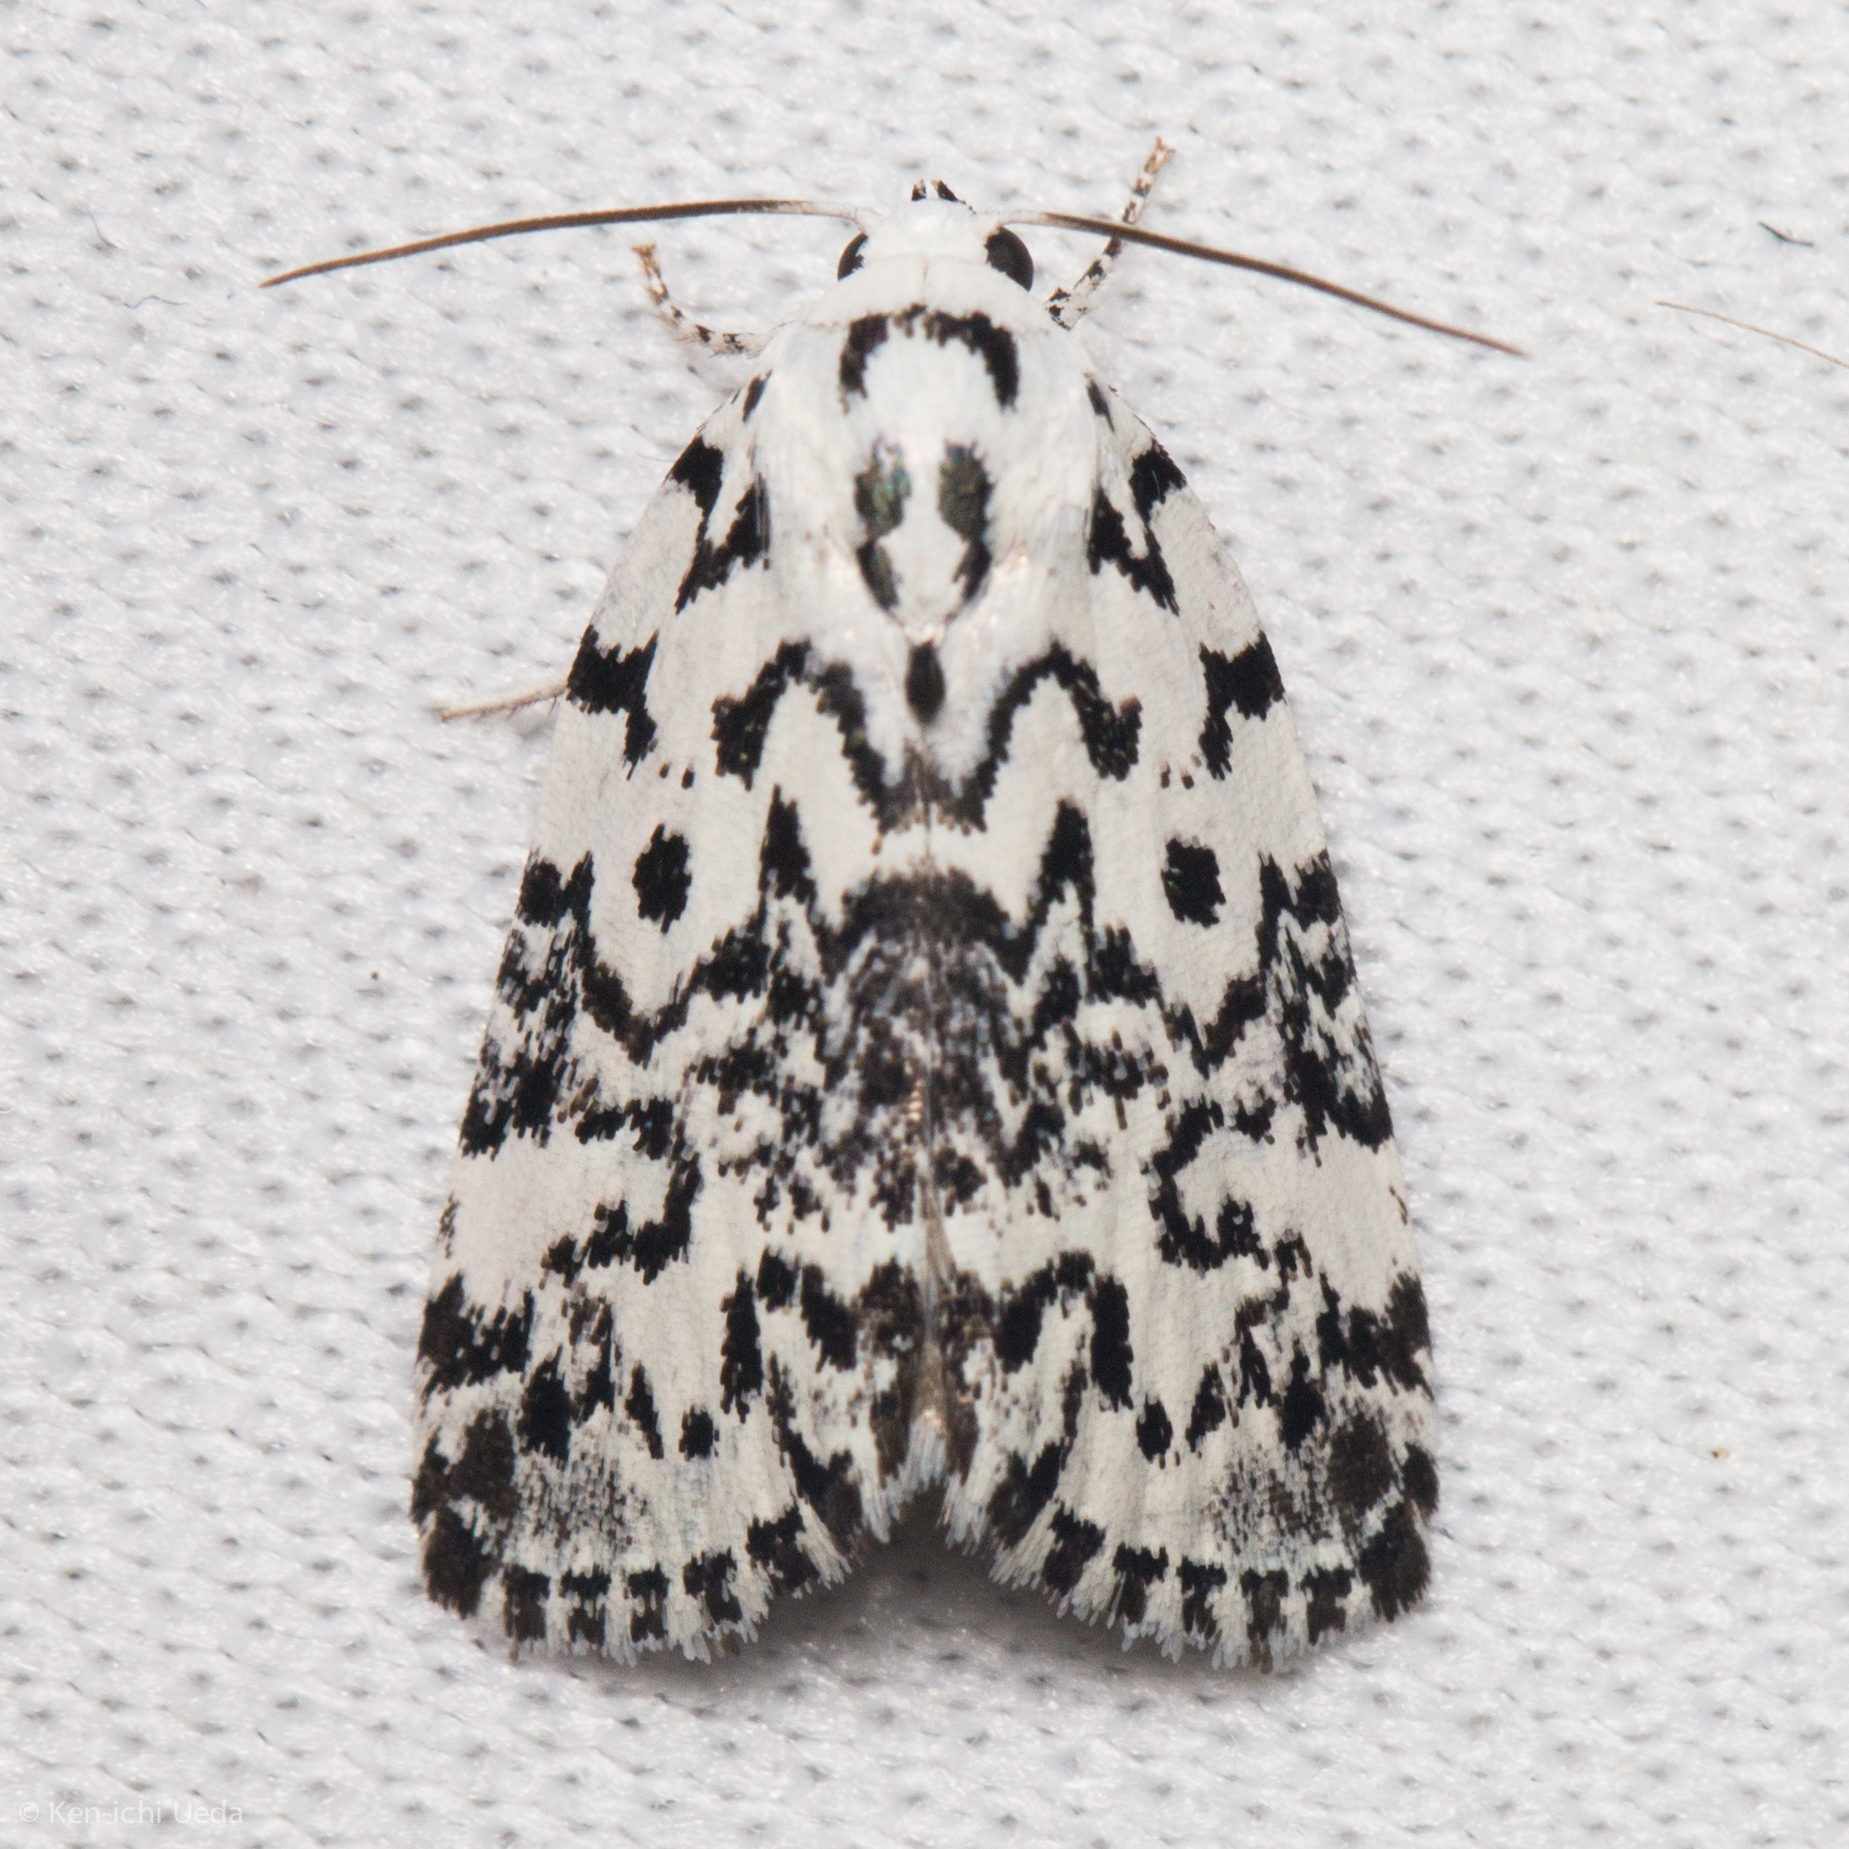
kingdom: Animalia
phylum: Arthropoda
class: Insecta
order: Lepidoptera
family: Noctuidae
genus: Polygrammate
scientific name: Polygrammate hebraeicum
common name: Hebrew moth
